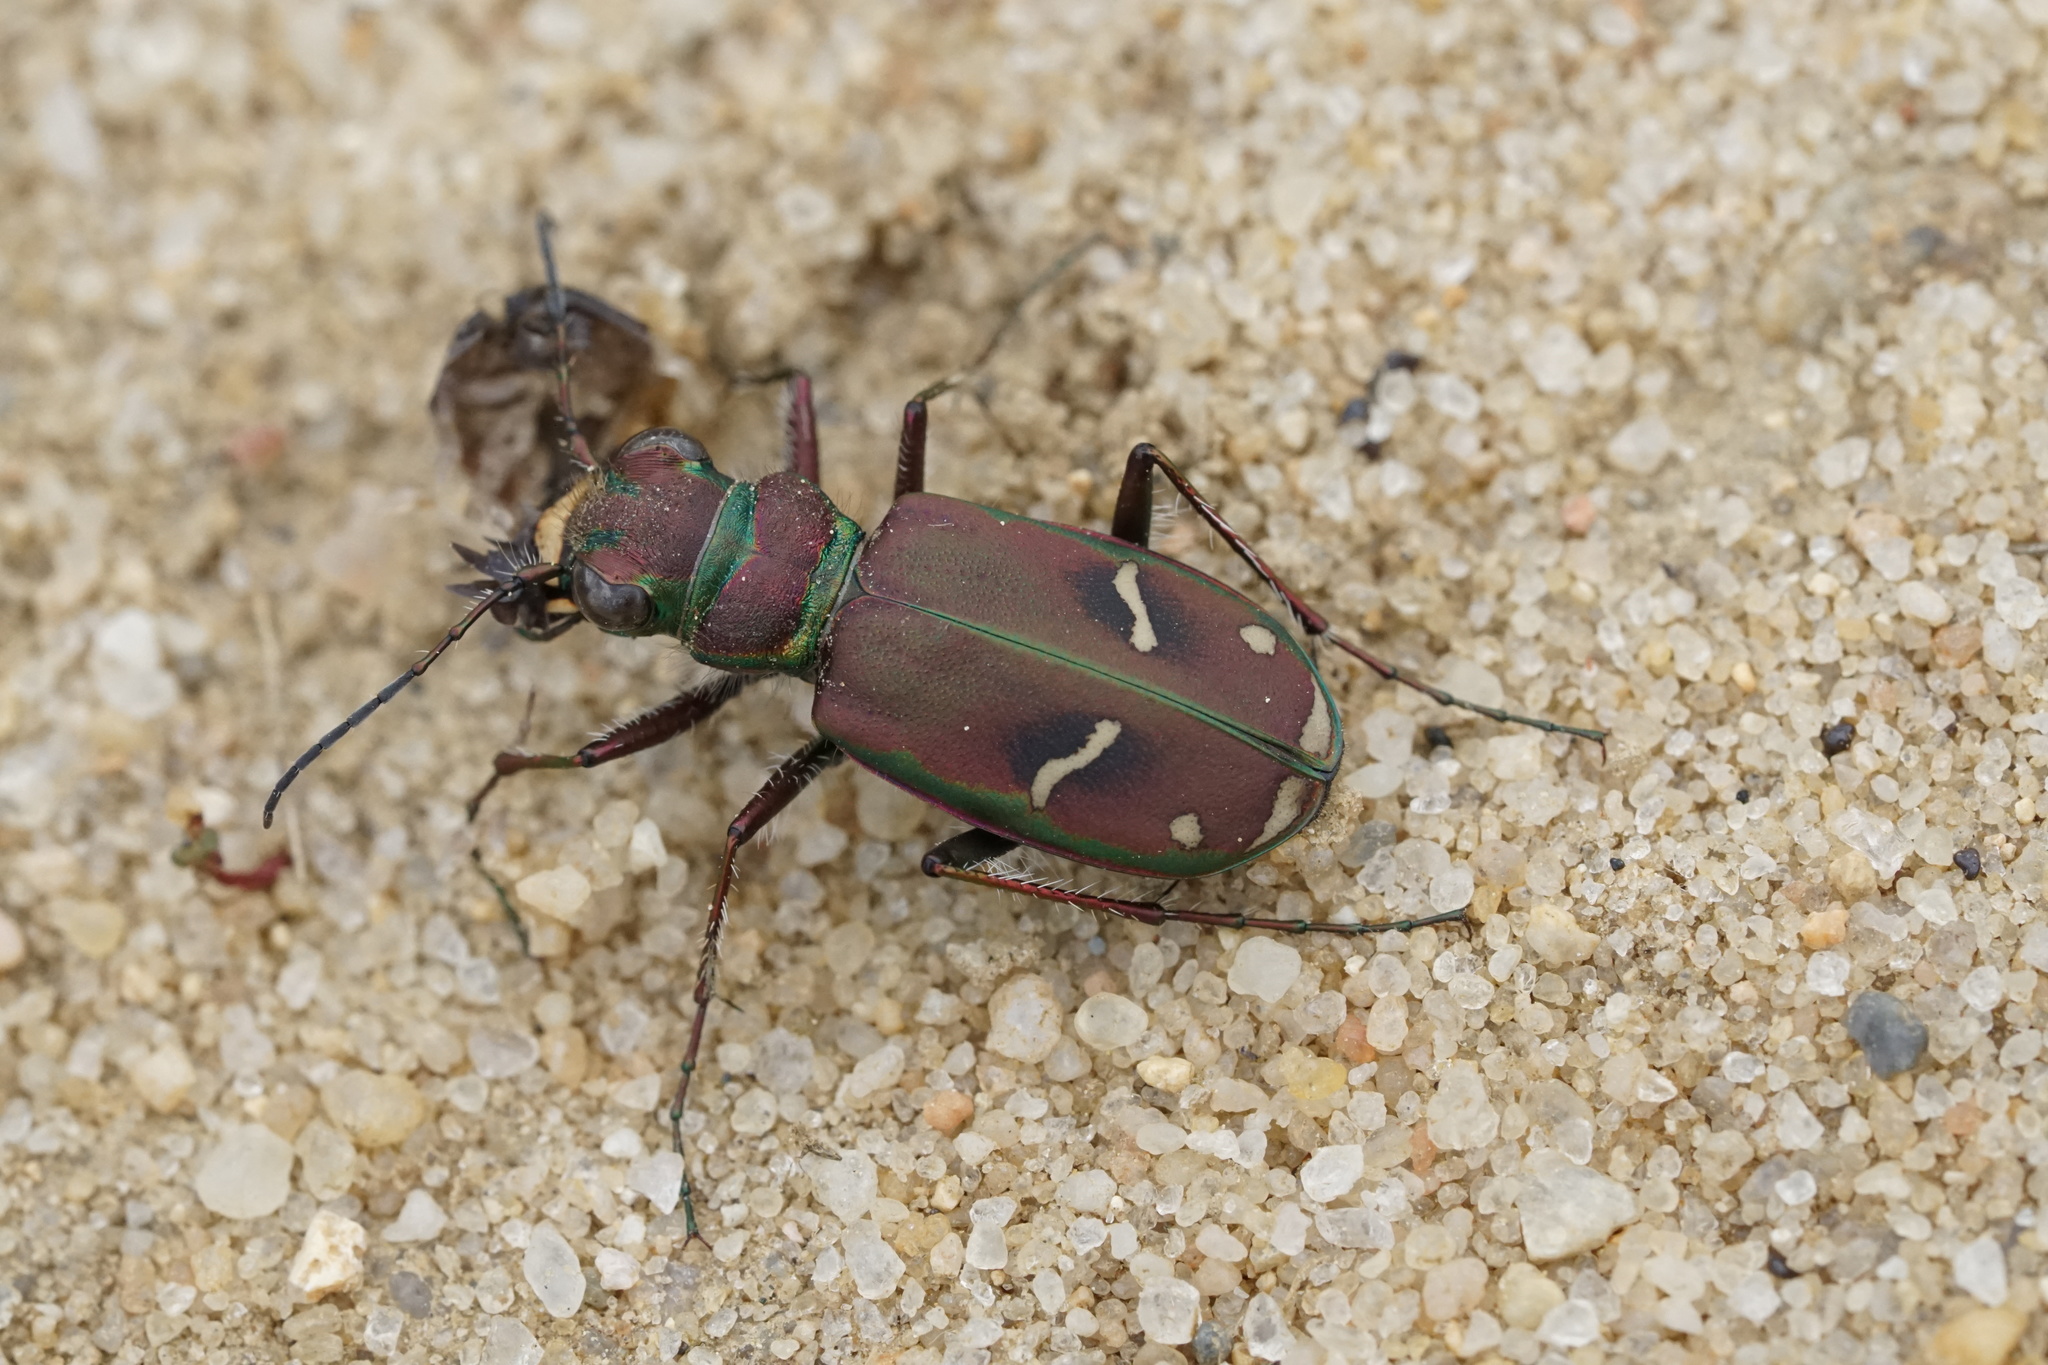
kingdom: Animalia
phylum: Arthropoda
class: Insecta
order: Coleoptera
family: Carabidae
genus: Cicindela
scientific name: Cicindela purpurea
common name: Cow path tiger beetle
